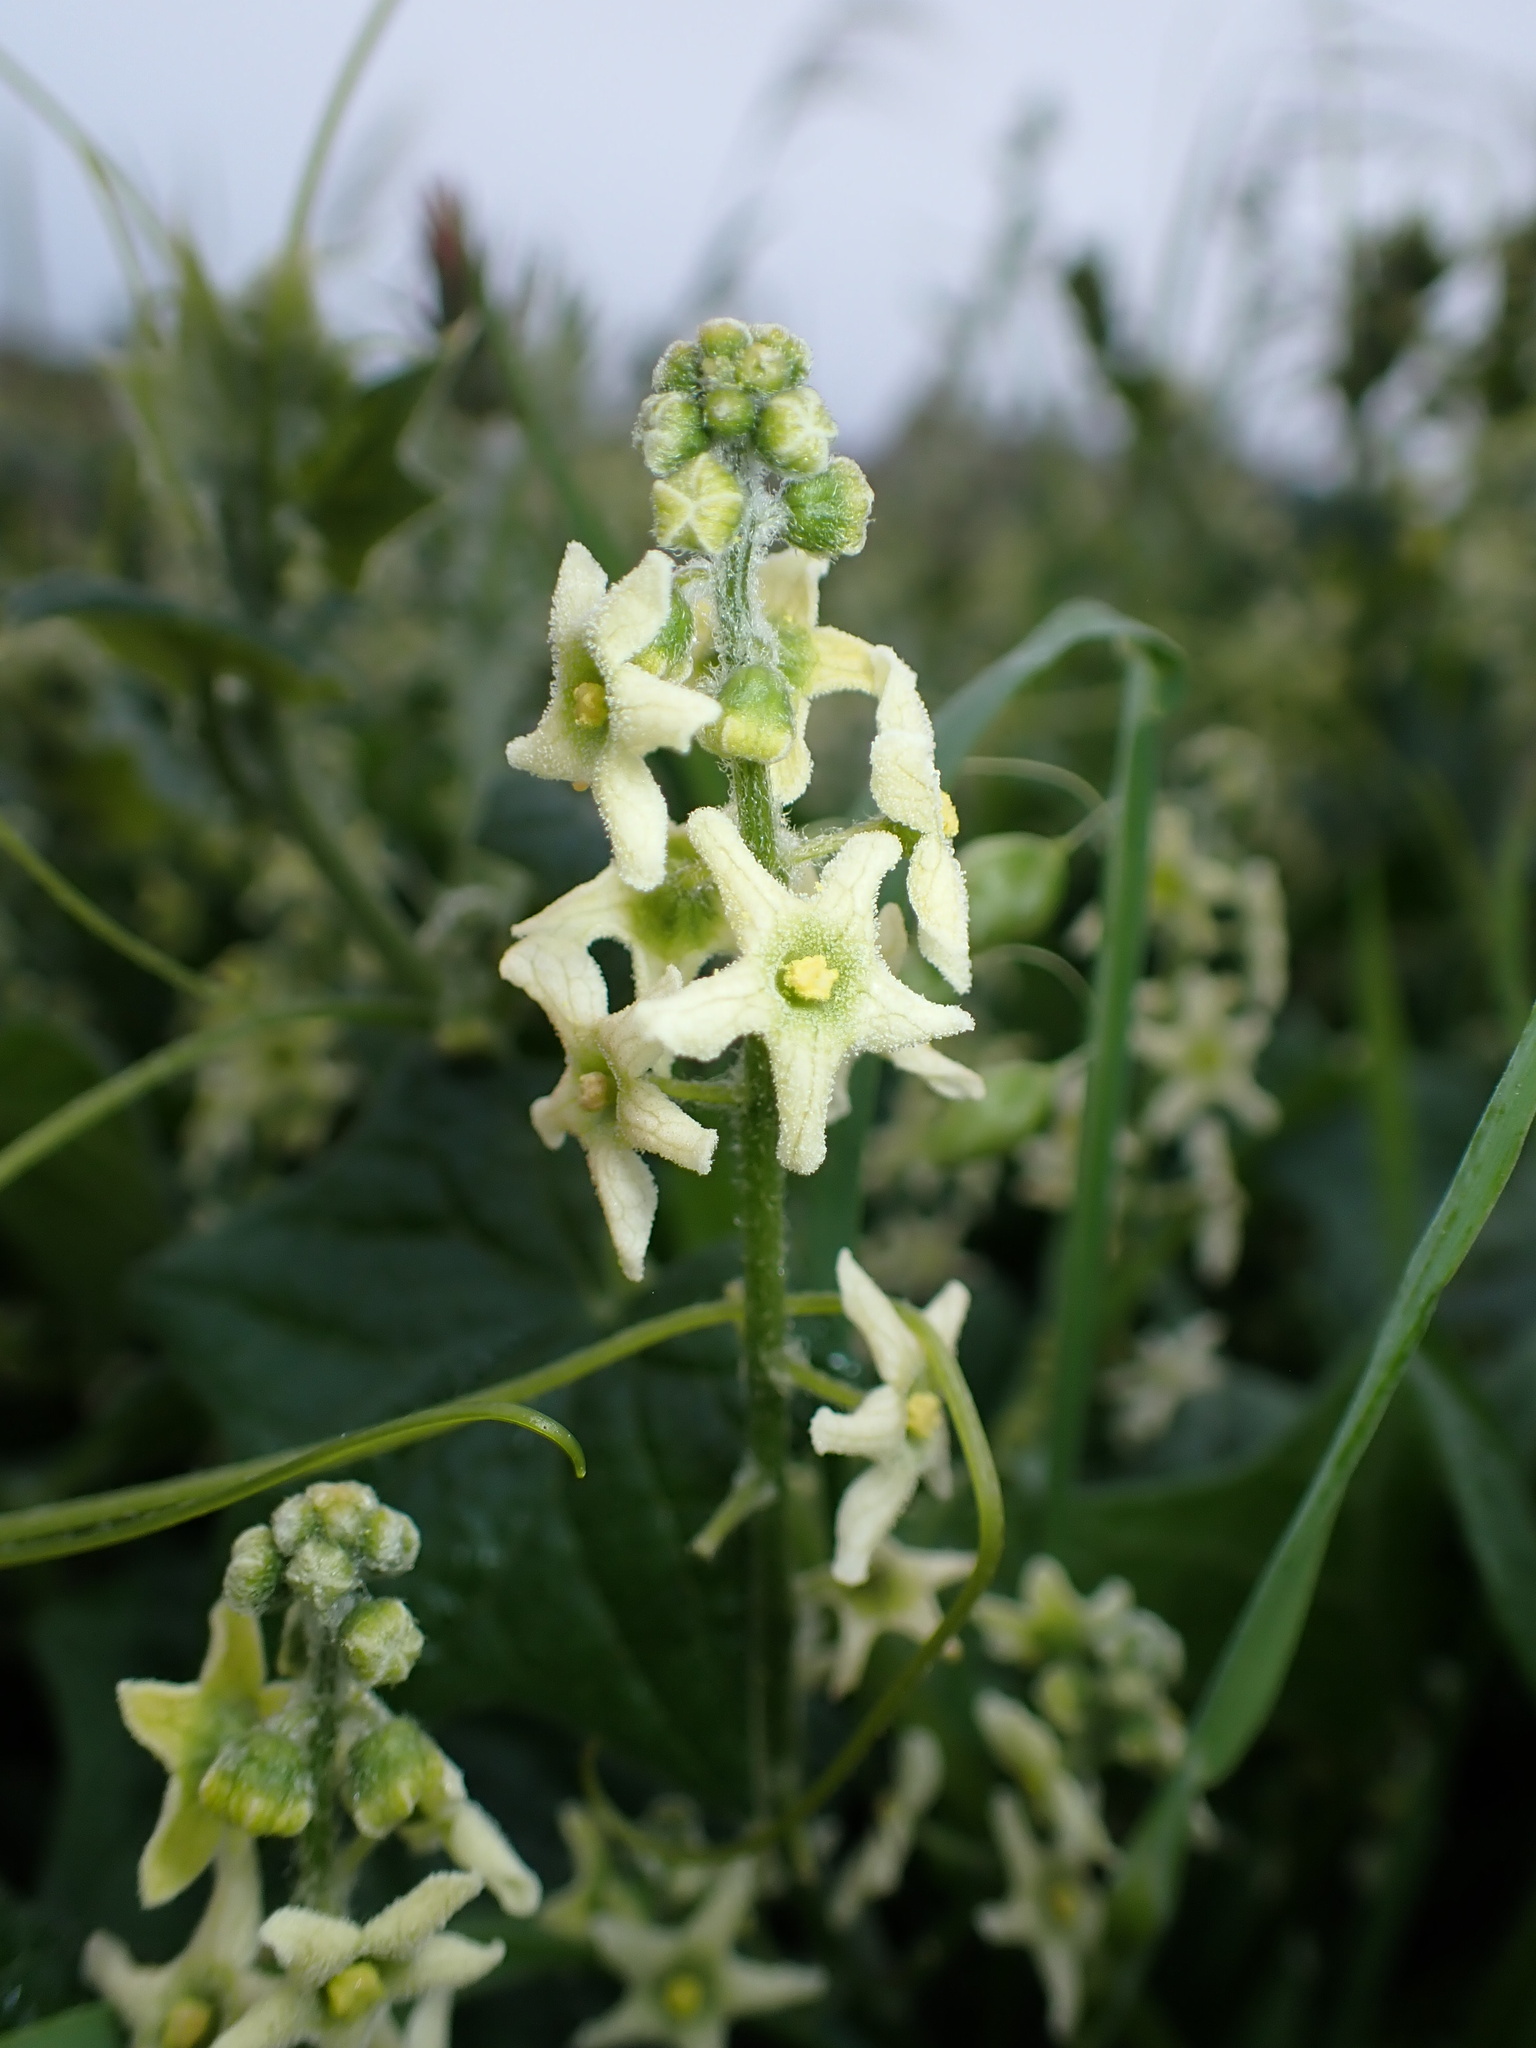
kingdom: Plantae
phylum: Tracheophyta
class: Magnoliopsida
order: Cucurbitales
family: Cucurbitaceae
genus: Marah
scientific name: Marah fabacea
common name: California manroot
